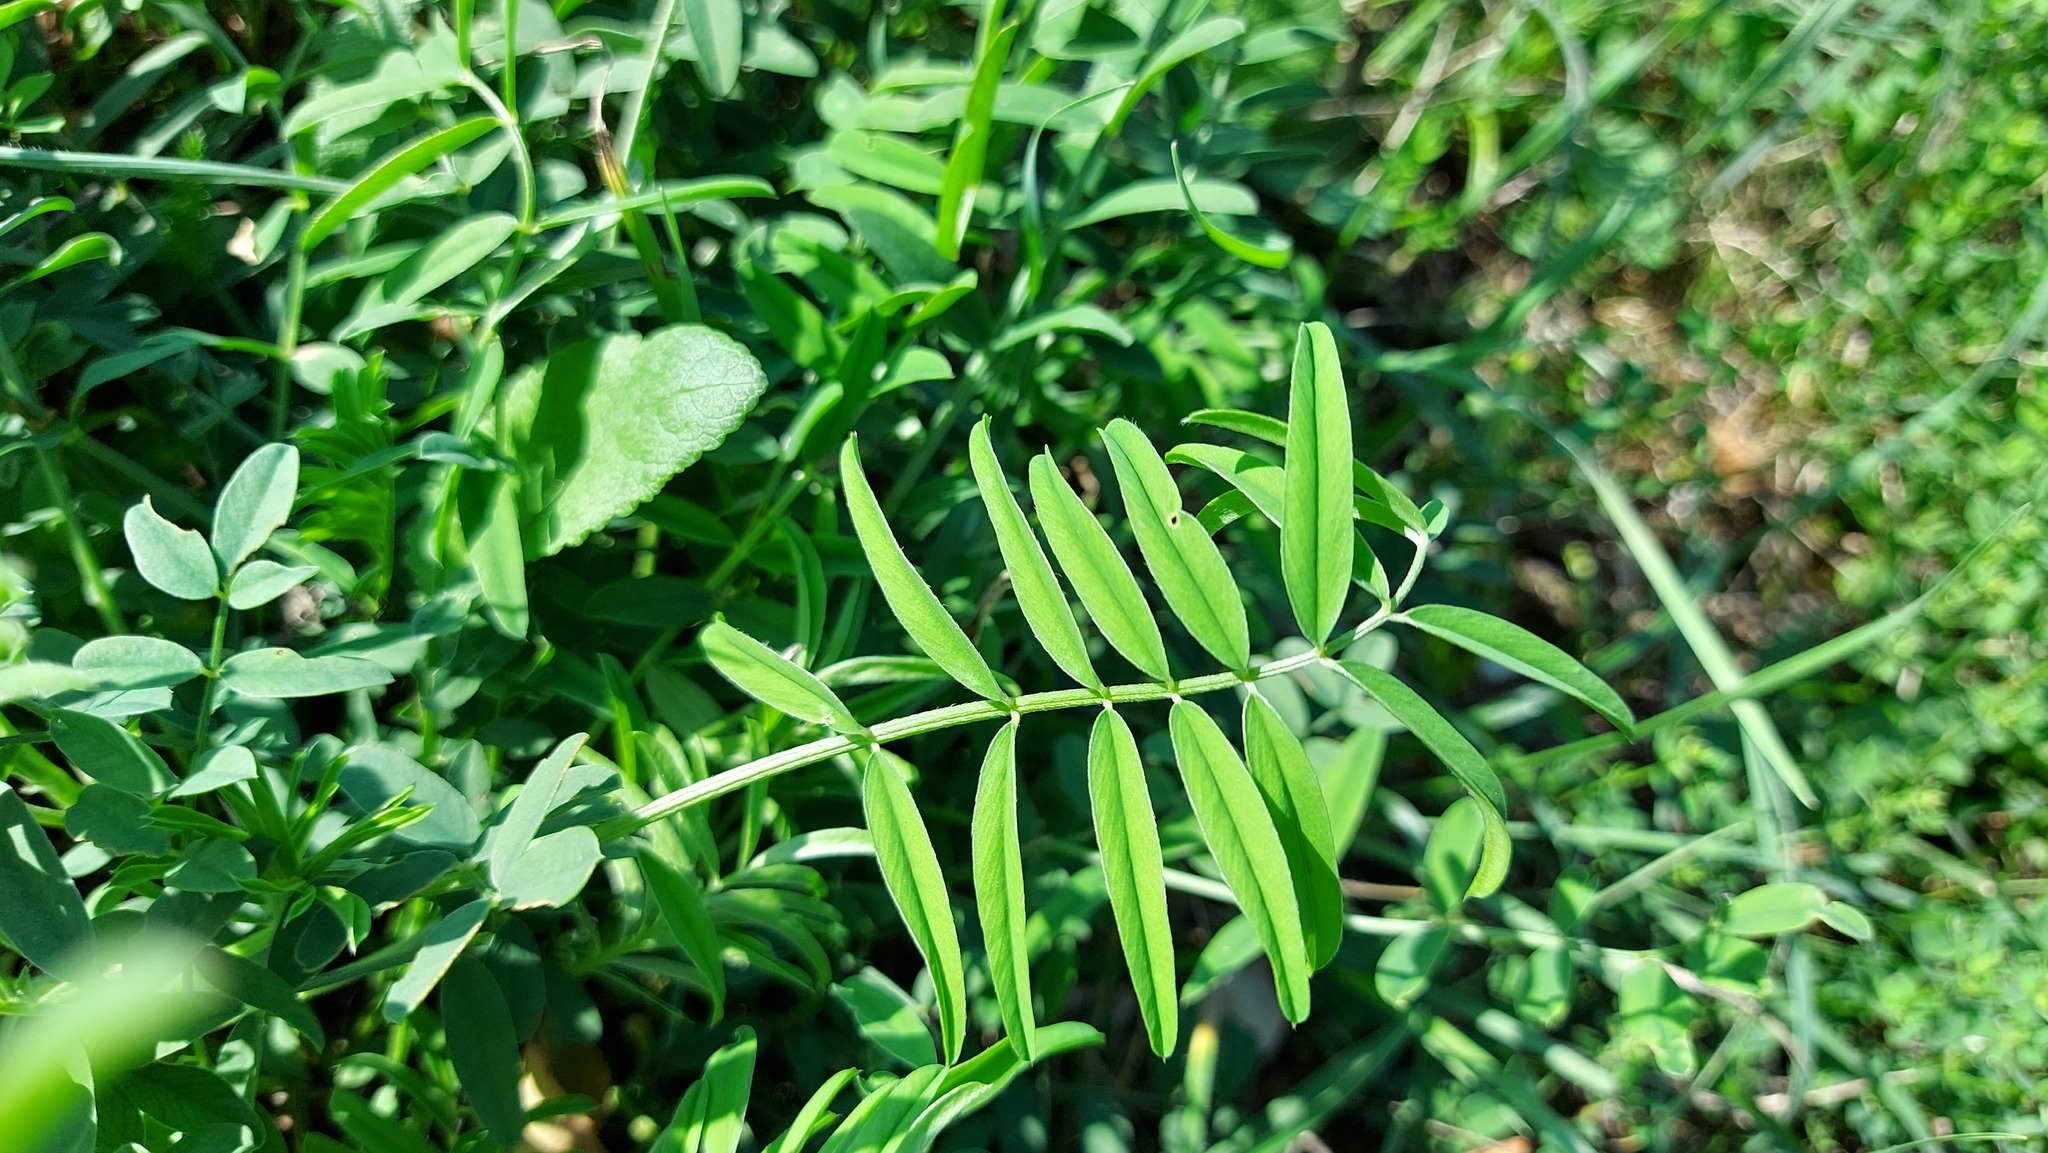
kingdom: Plantae
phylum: Tracheophyta
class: Magnoliopsida
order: Fabales
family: Fabaceae
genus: Galega
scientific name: Galega officinalis
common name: Goat's-rue
